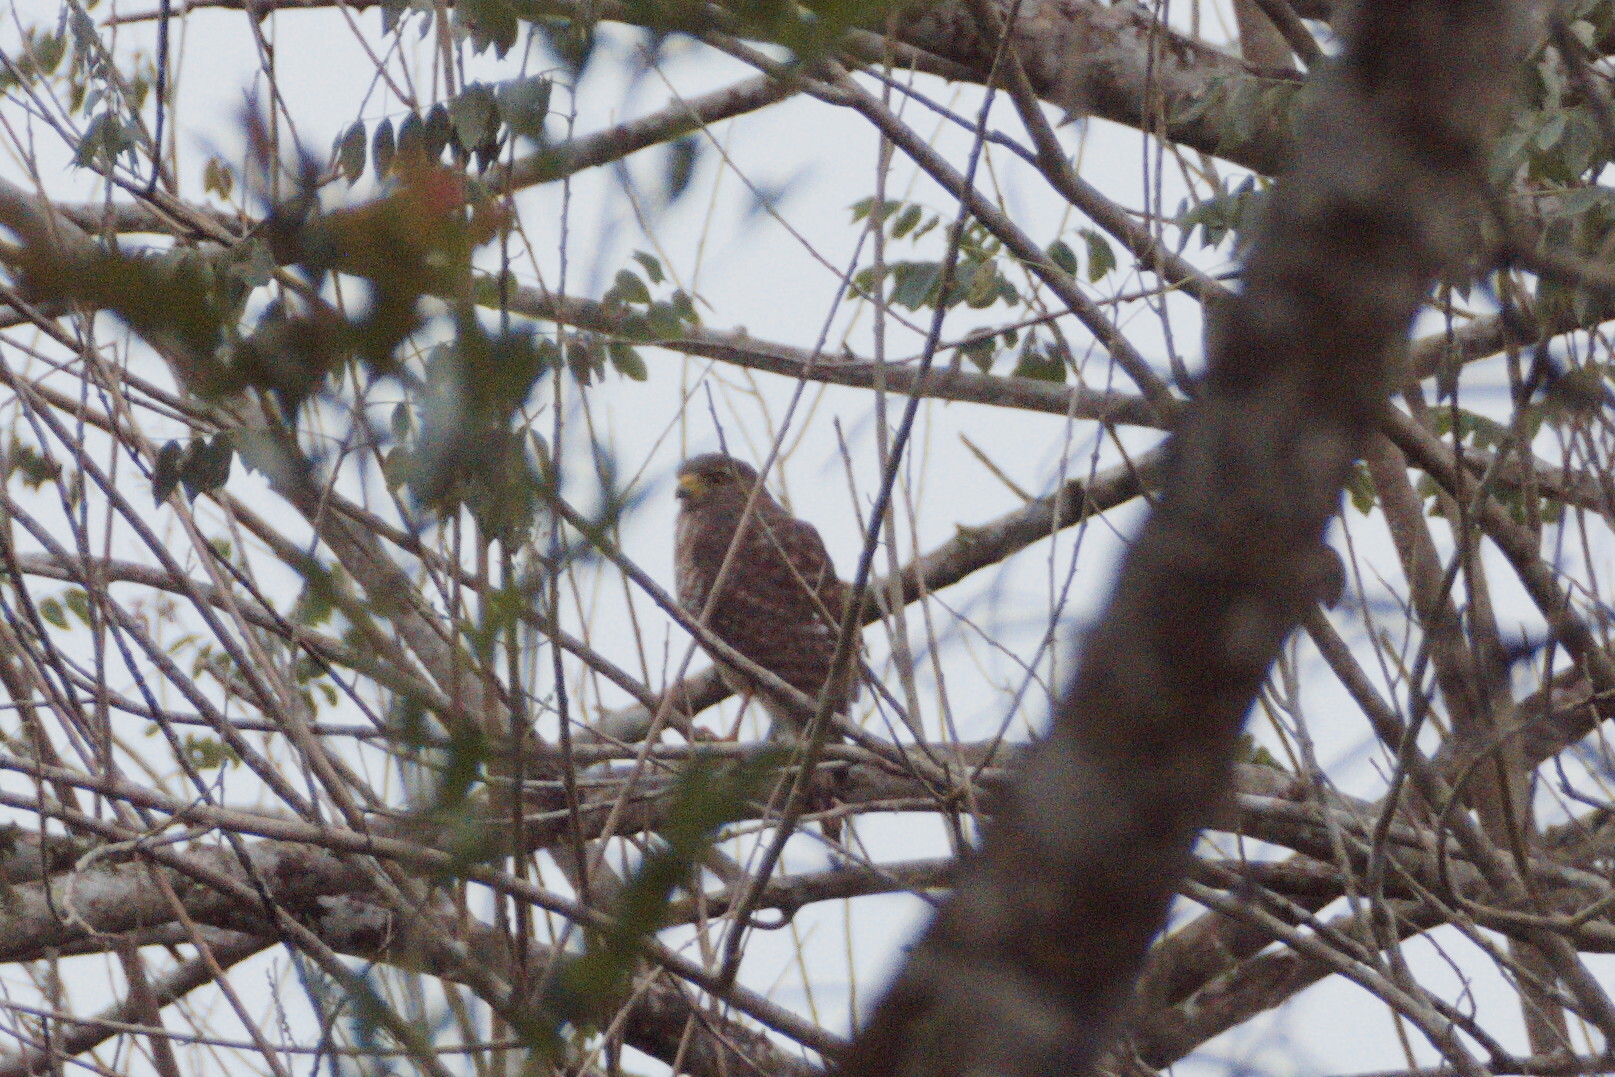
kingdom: Animalia
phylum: Chordata
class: Aves
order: Accipitriformes
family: Accipitridae
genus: Rupornis
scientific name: Rupornis magnirostris
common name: Roadside hawk
